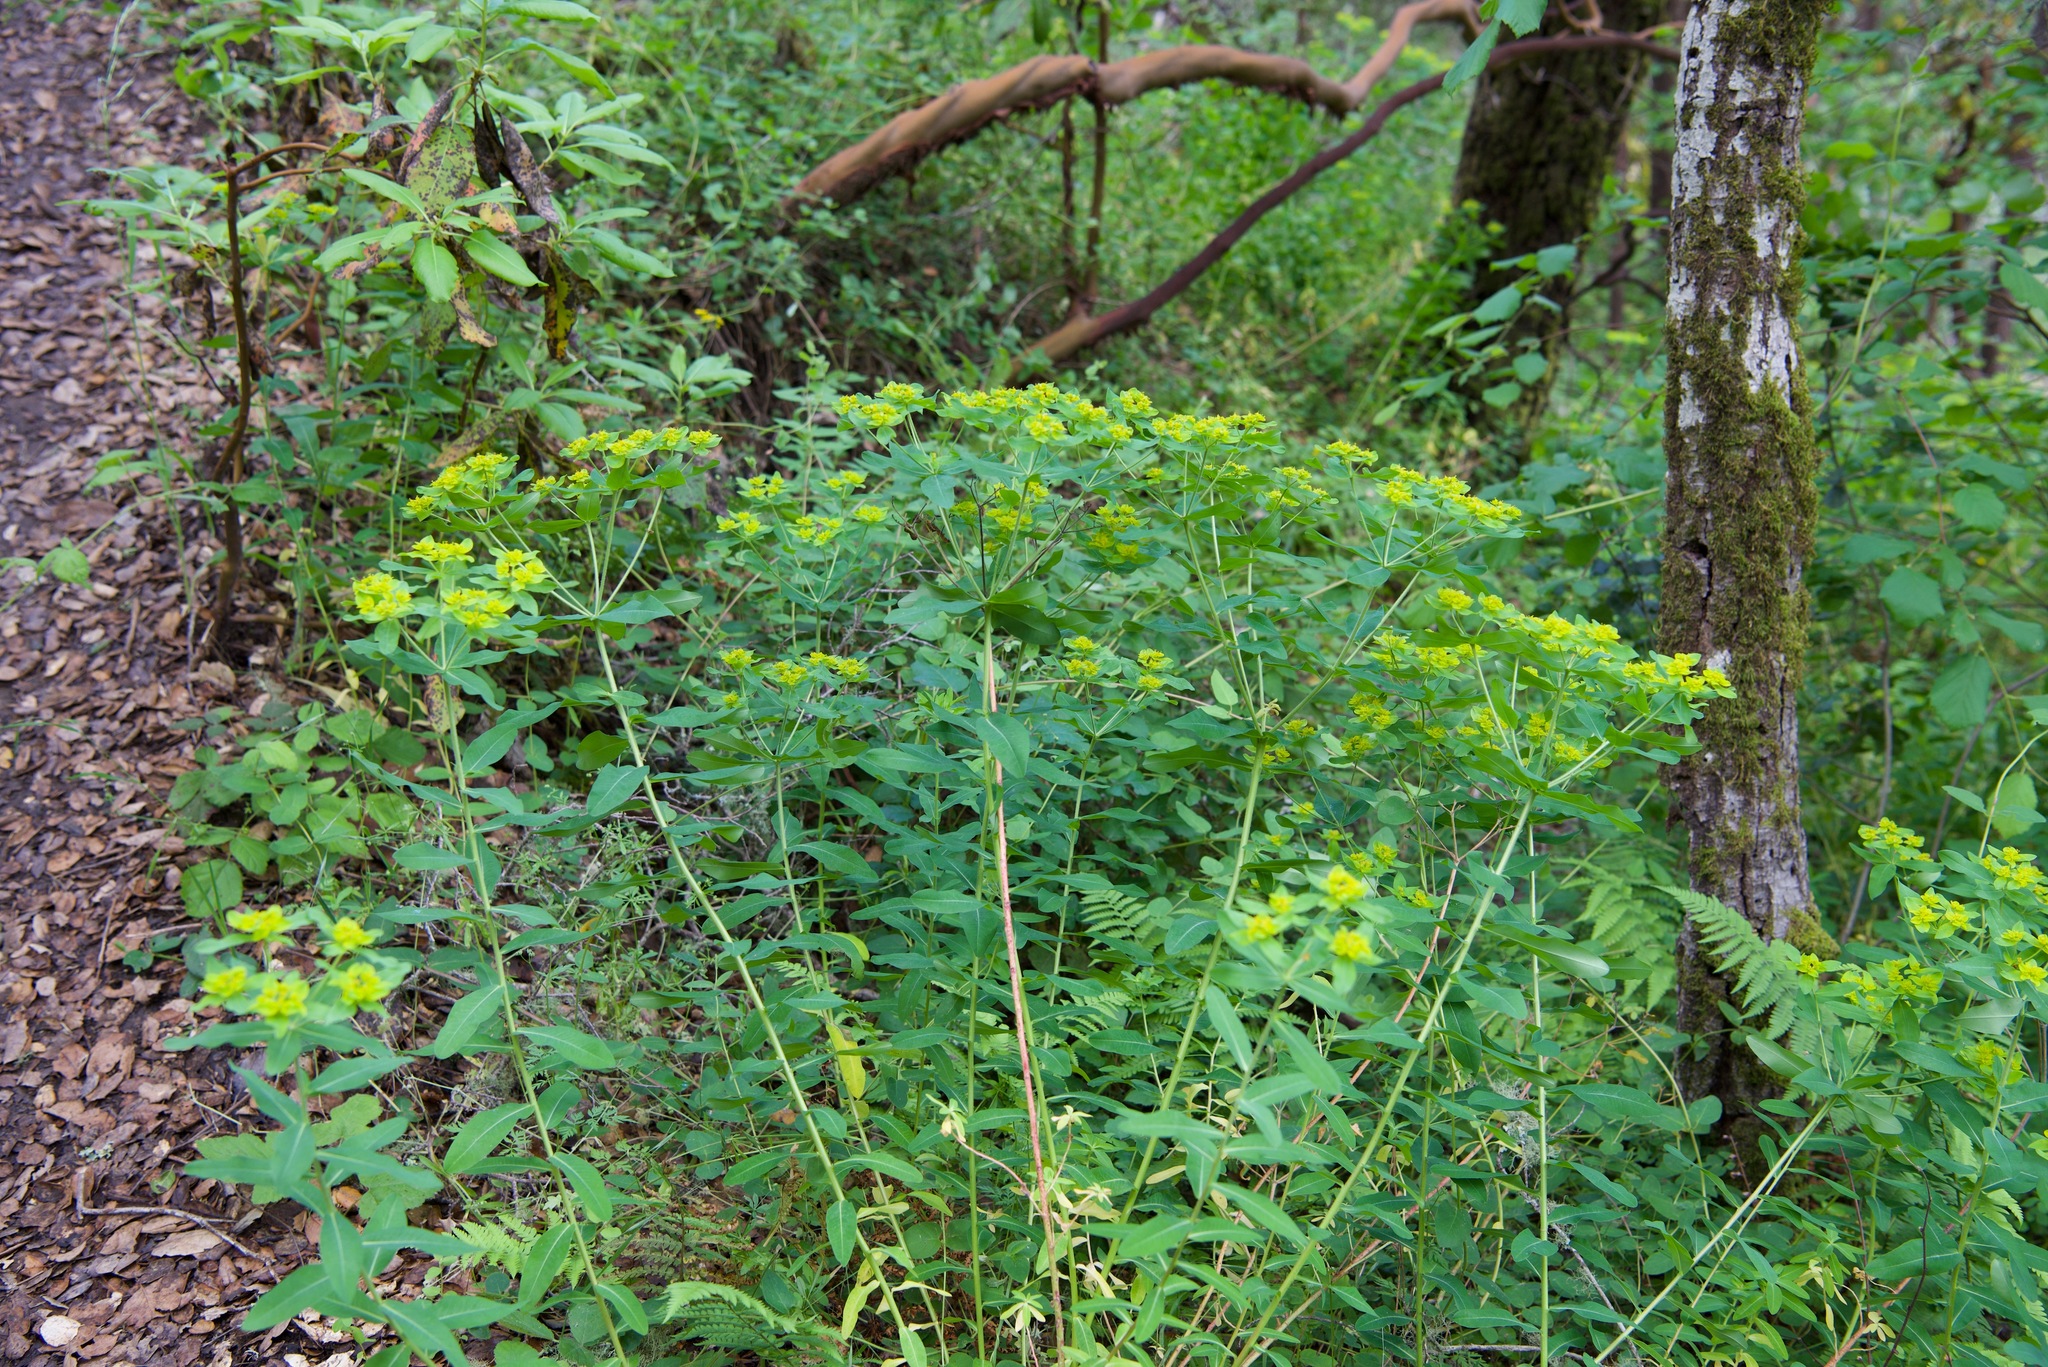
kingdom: Plantae
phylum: Tracheophyta
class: Magnoliopsida
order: Malpighiales
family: Euphorbiaceae
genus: Euphorbia
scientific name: Euphorbia oblongata
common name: Balkan spurge
